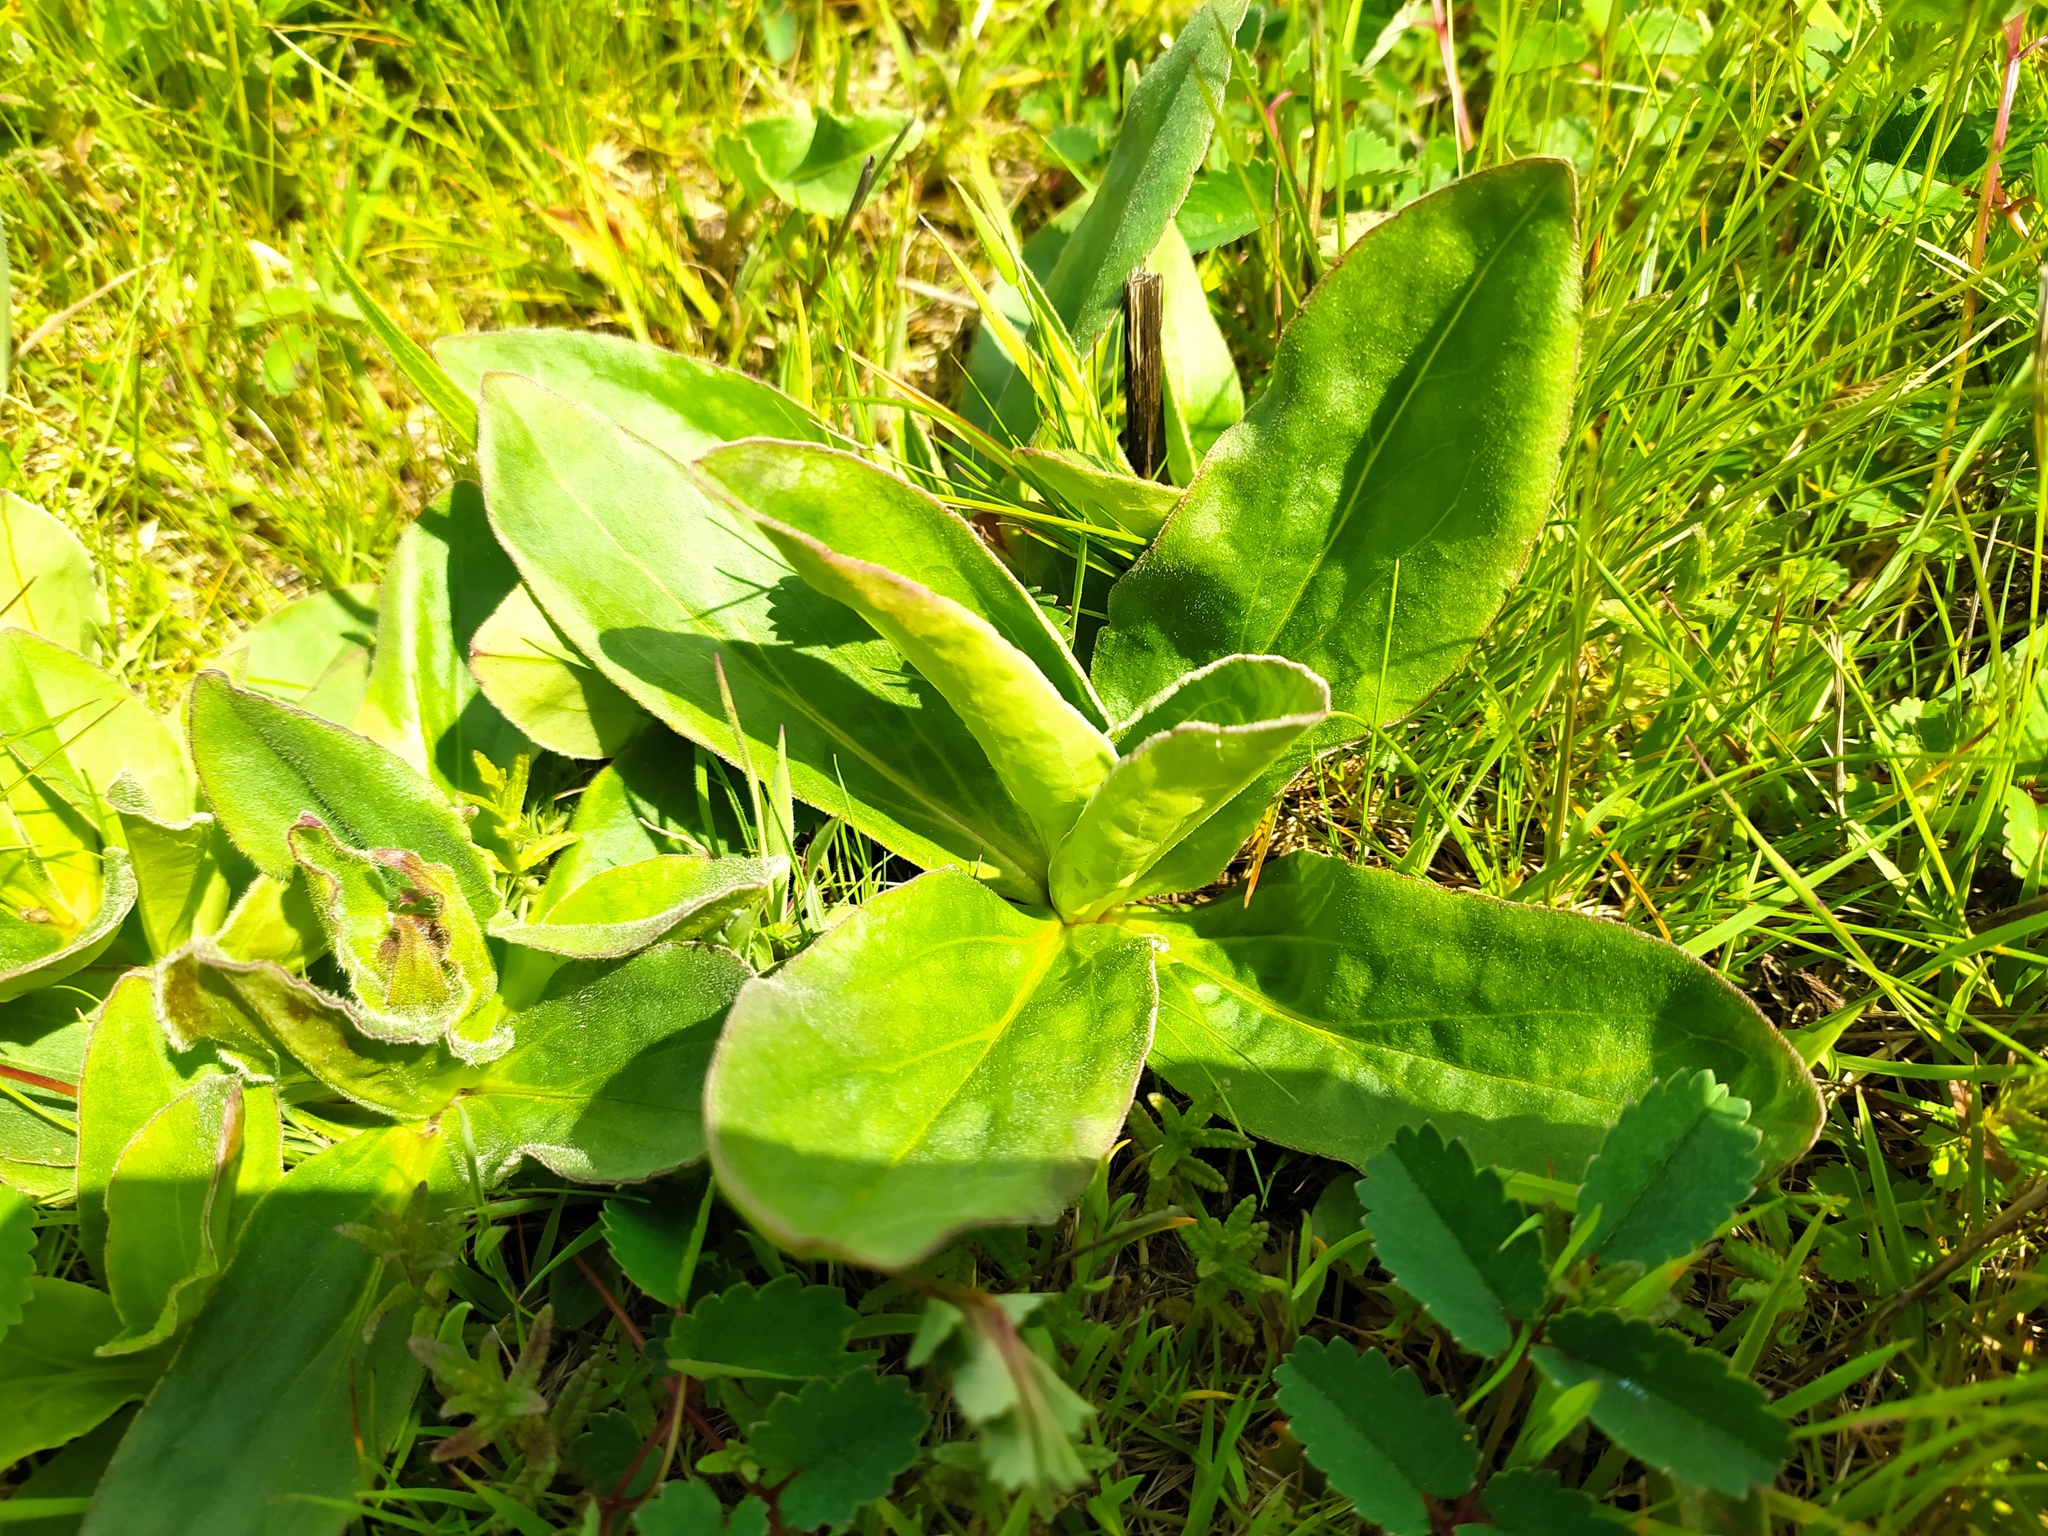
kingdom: Plantae
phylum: Tracheophyta
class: Magnoliopsida
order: Asterales
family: Asteraceae
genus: Arnica
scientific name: Arnica montana
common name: Leopard's bane
